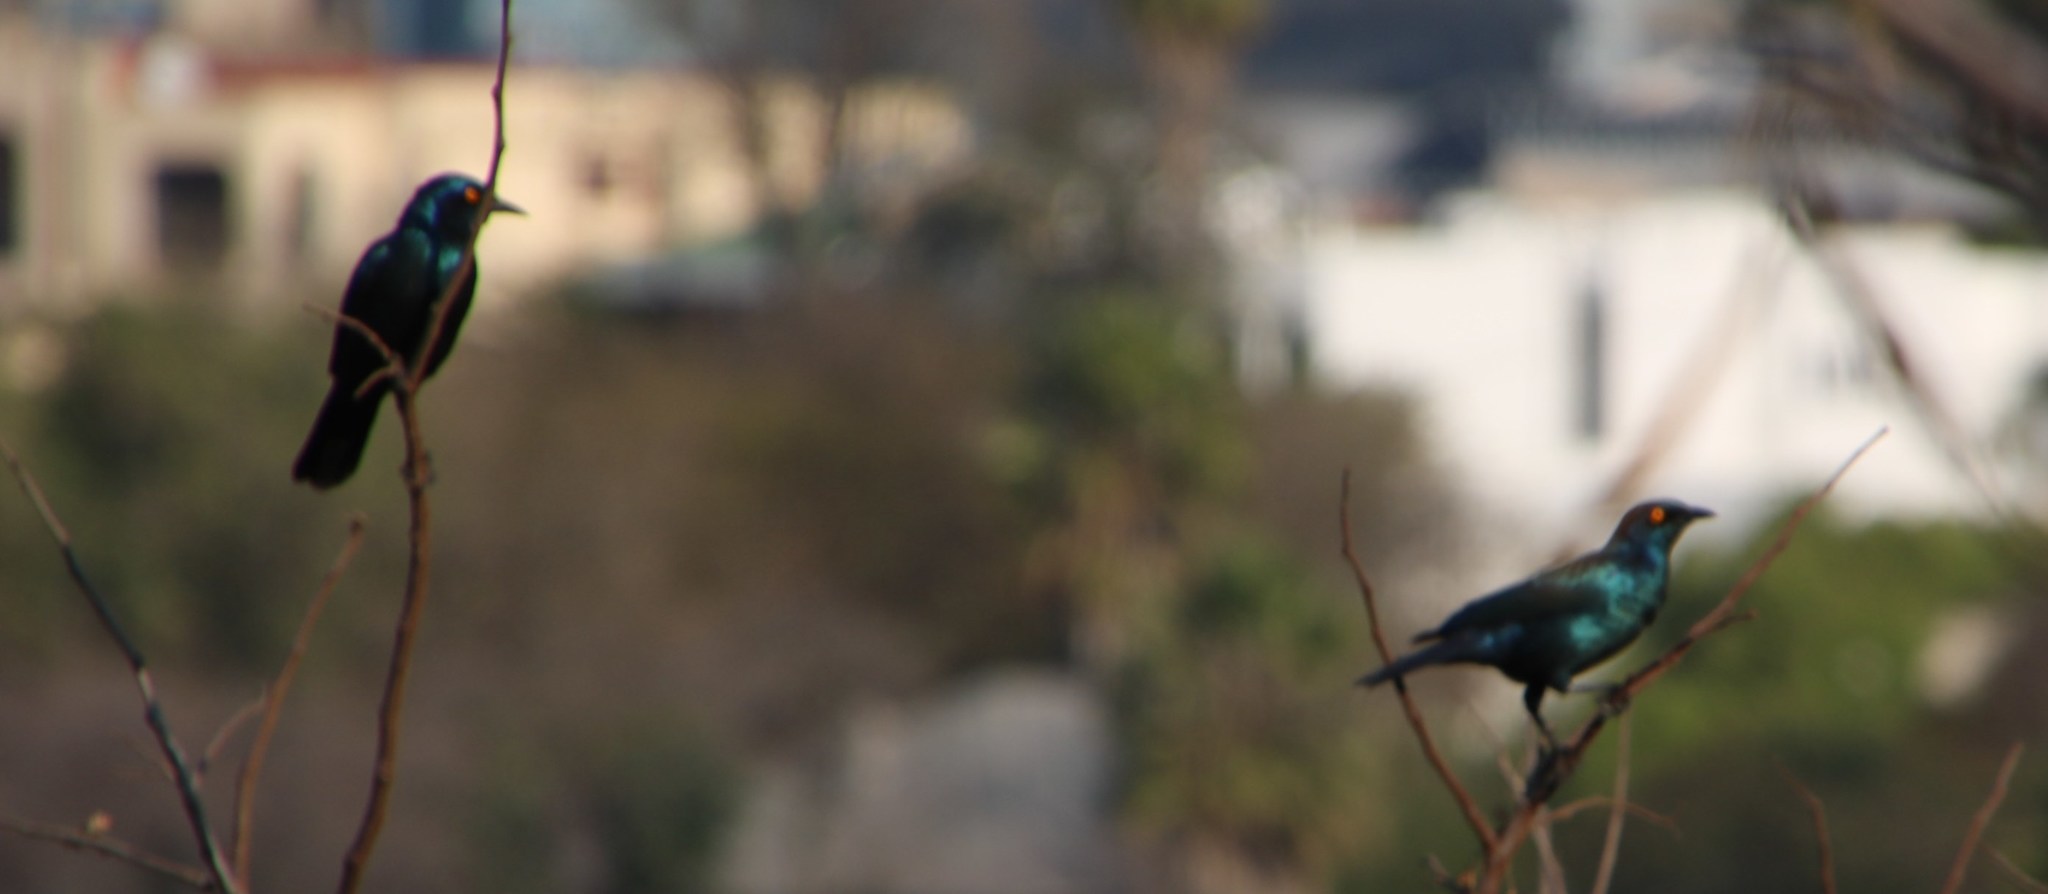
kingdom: Animalia
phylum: Chordata
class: Aves
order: Passeriformes
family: Sturnidae
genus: Lamprotornis
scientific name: Lamprotornis nitens
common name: Cape starling
